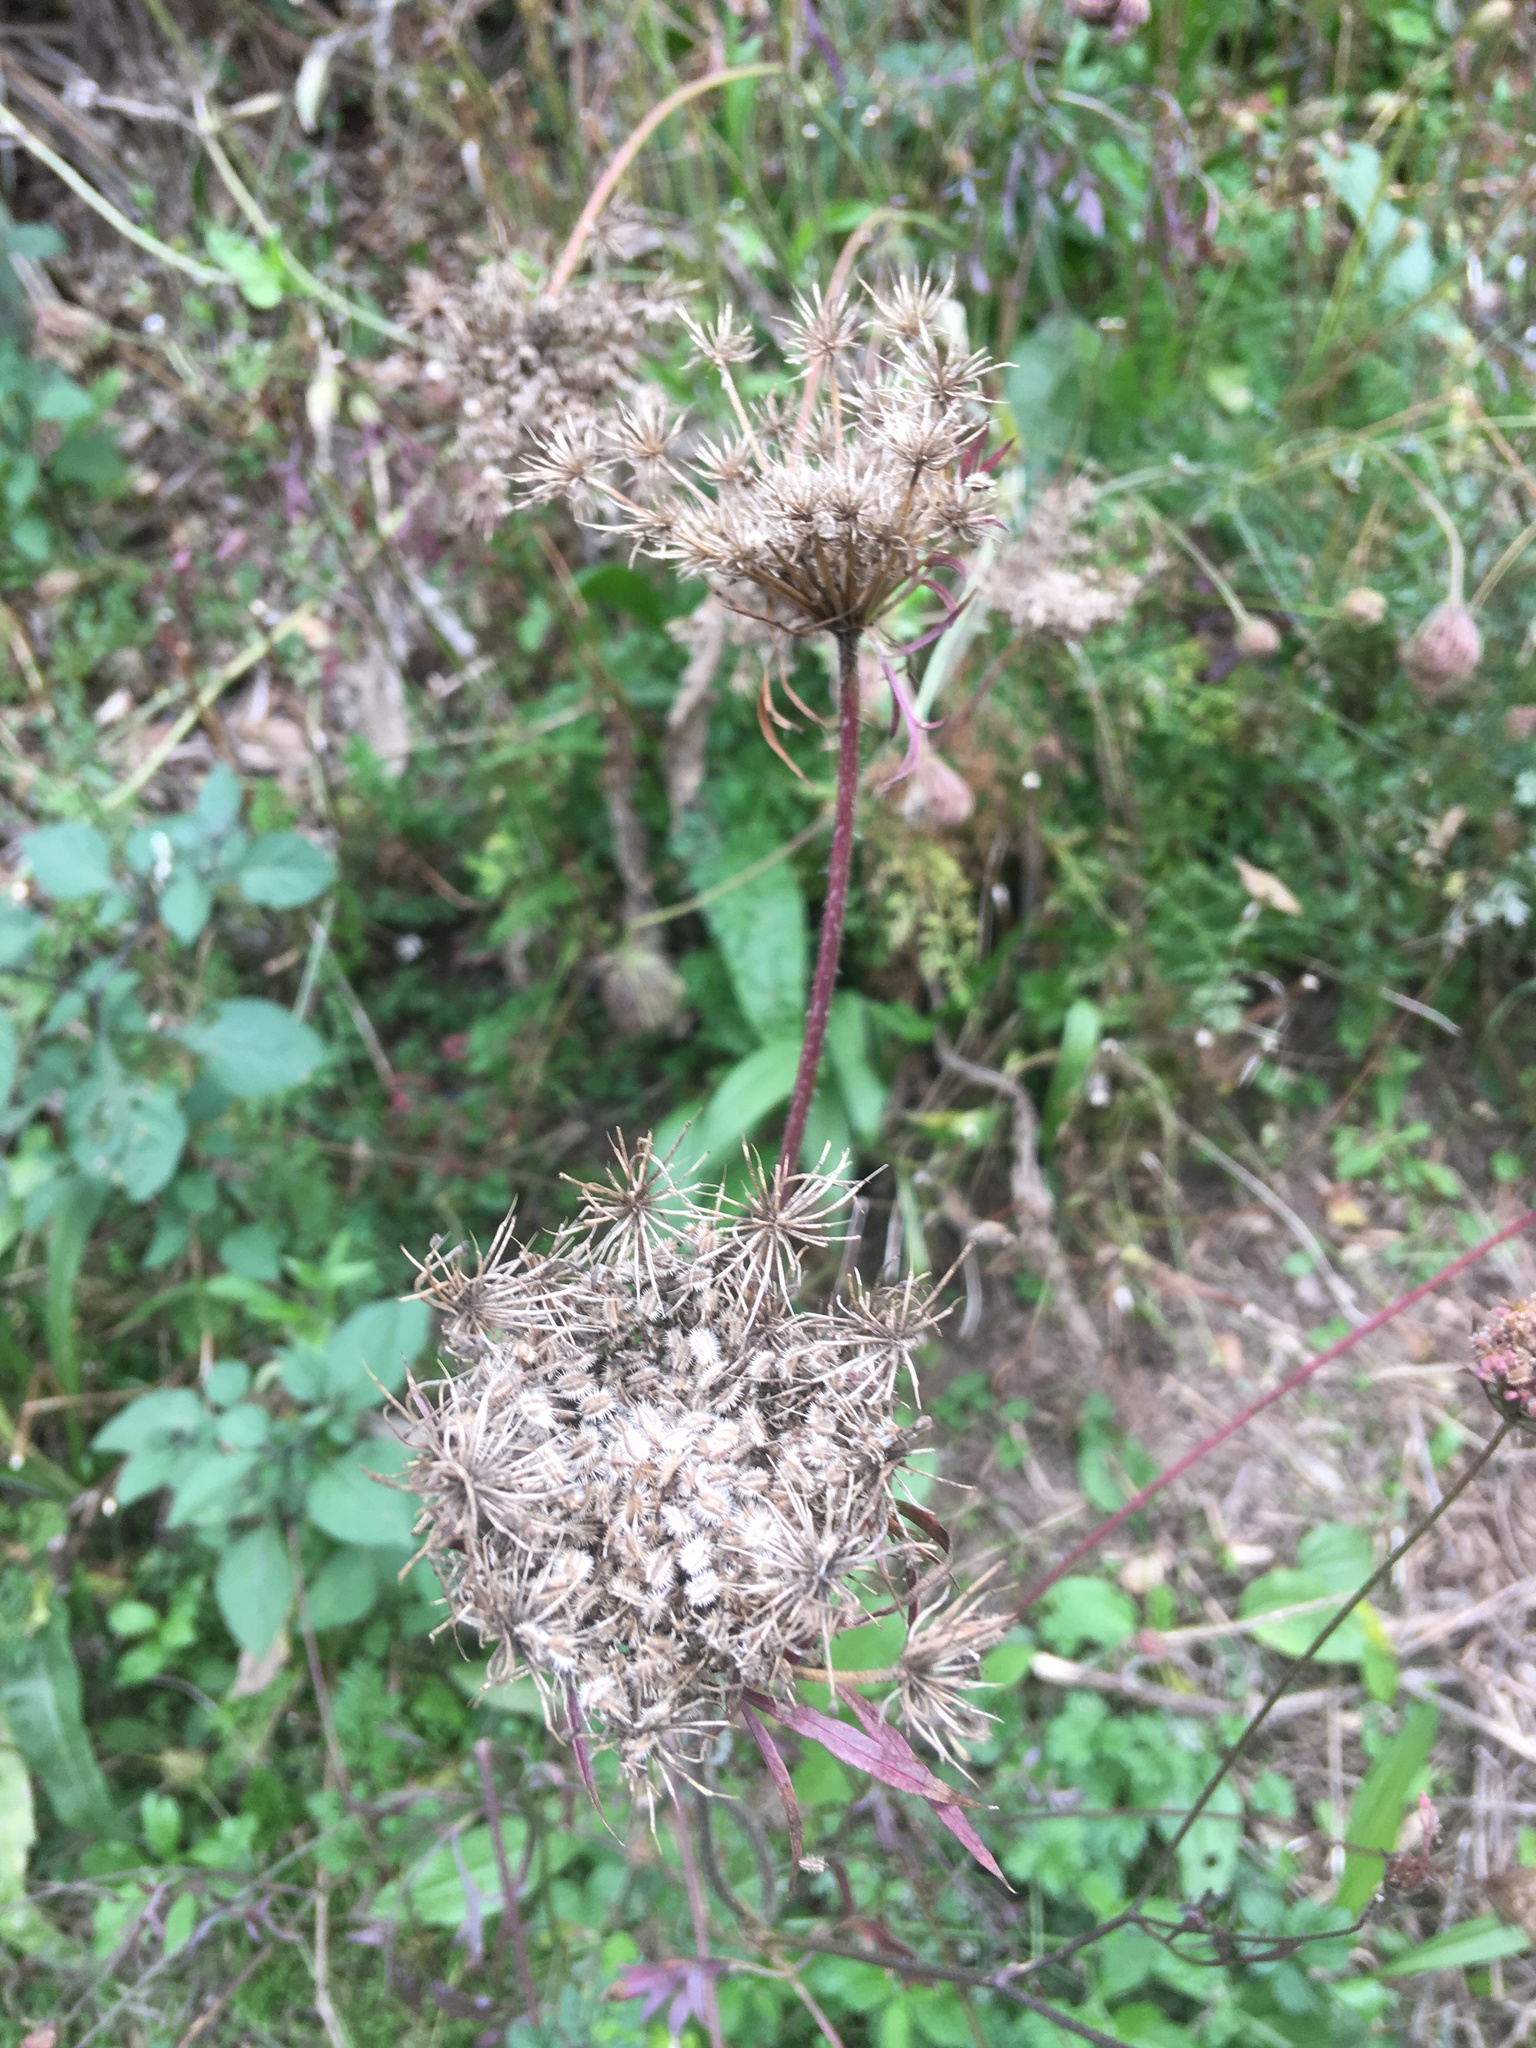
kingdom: Plantae
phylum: Tracheophyta
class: Magnoliopsida
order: Apiales
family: Apiaceae
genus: Daucus
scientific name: Daucus carota
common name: Wild carrot
